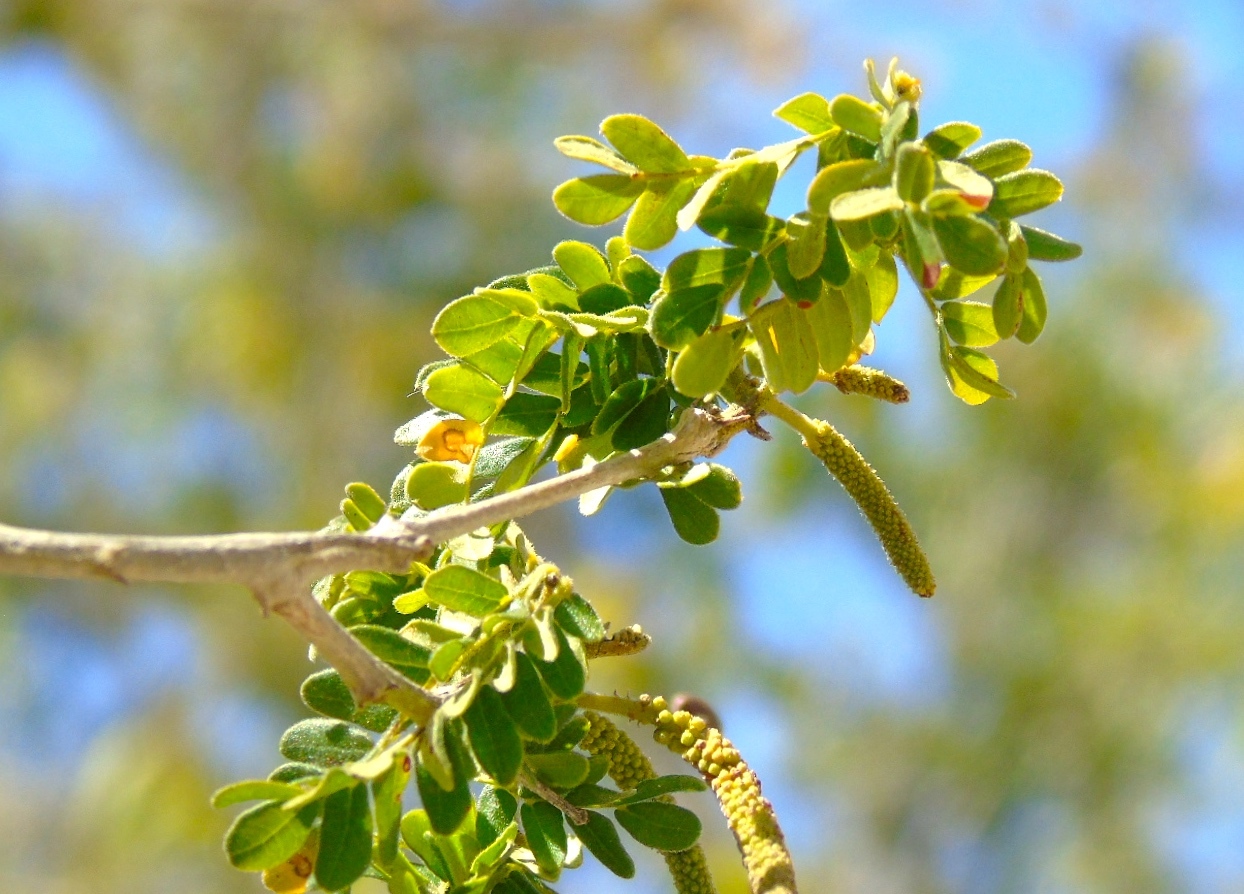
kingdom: Plantae
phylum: Tracheophyta
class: Magnoliopsida
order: Fabales
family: Fabaceae
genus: Pityrocarpa
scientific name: Pityrocarpa obliqua
